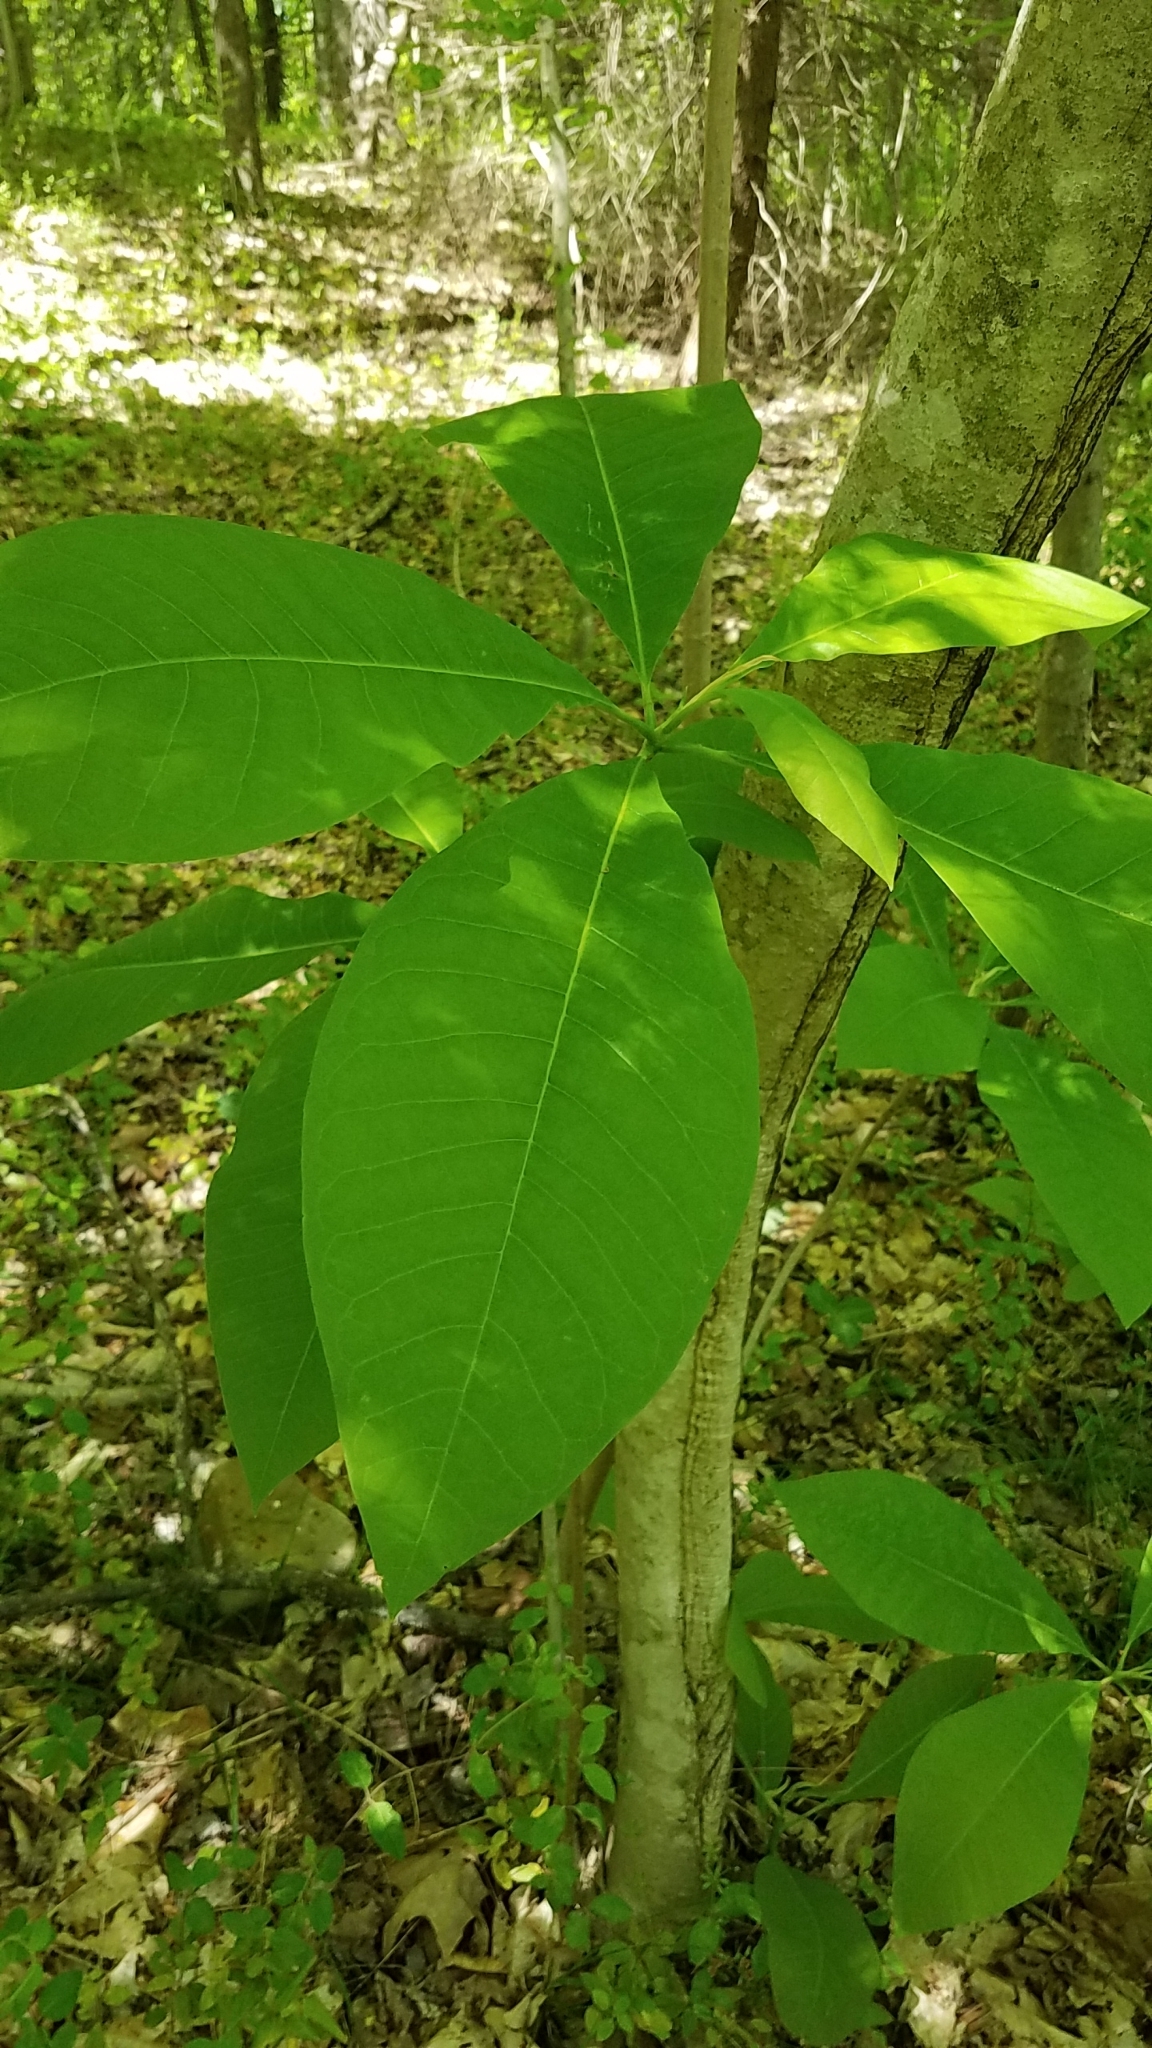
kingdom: Plantae
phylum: Tracheophyta
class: Magnoliopsida
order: Magnoliales
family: Magnoliaceae
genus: Magnolia
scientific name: Magnolia tripetala
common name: Umbrella magnolia
